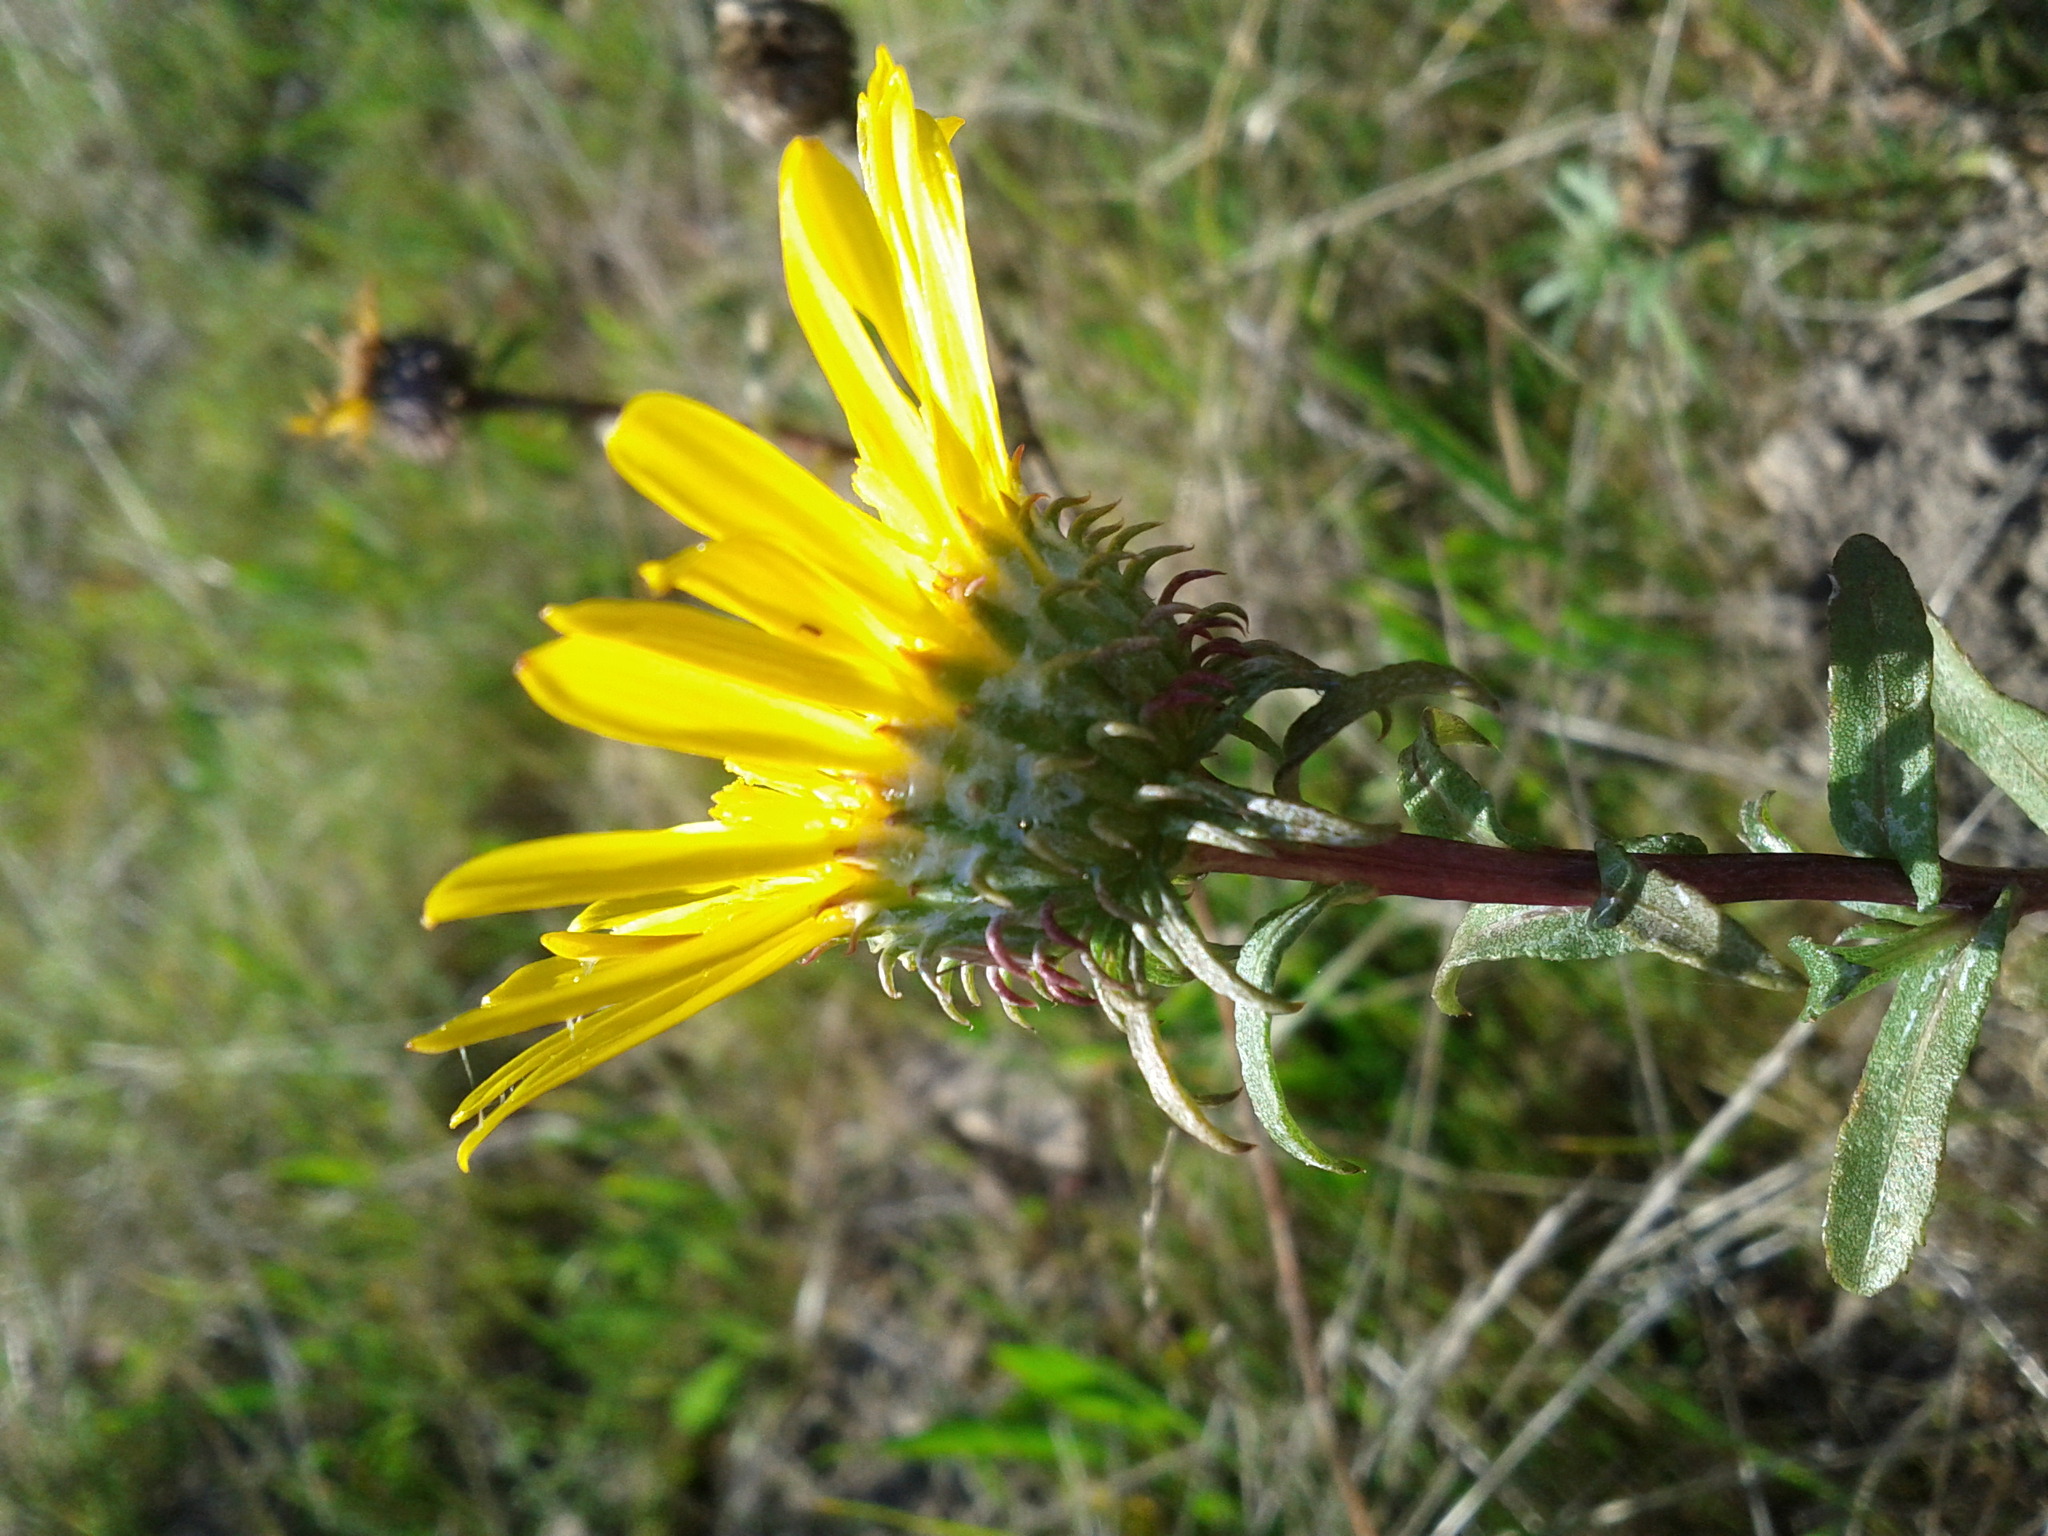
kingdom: Plantae
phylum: Tracheophyta
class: Magnoliopsida
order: Asterales
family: Asteraceae
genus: Grindelia
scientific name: Grindelia hirsutula
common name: Hairy gumweed
